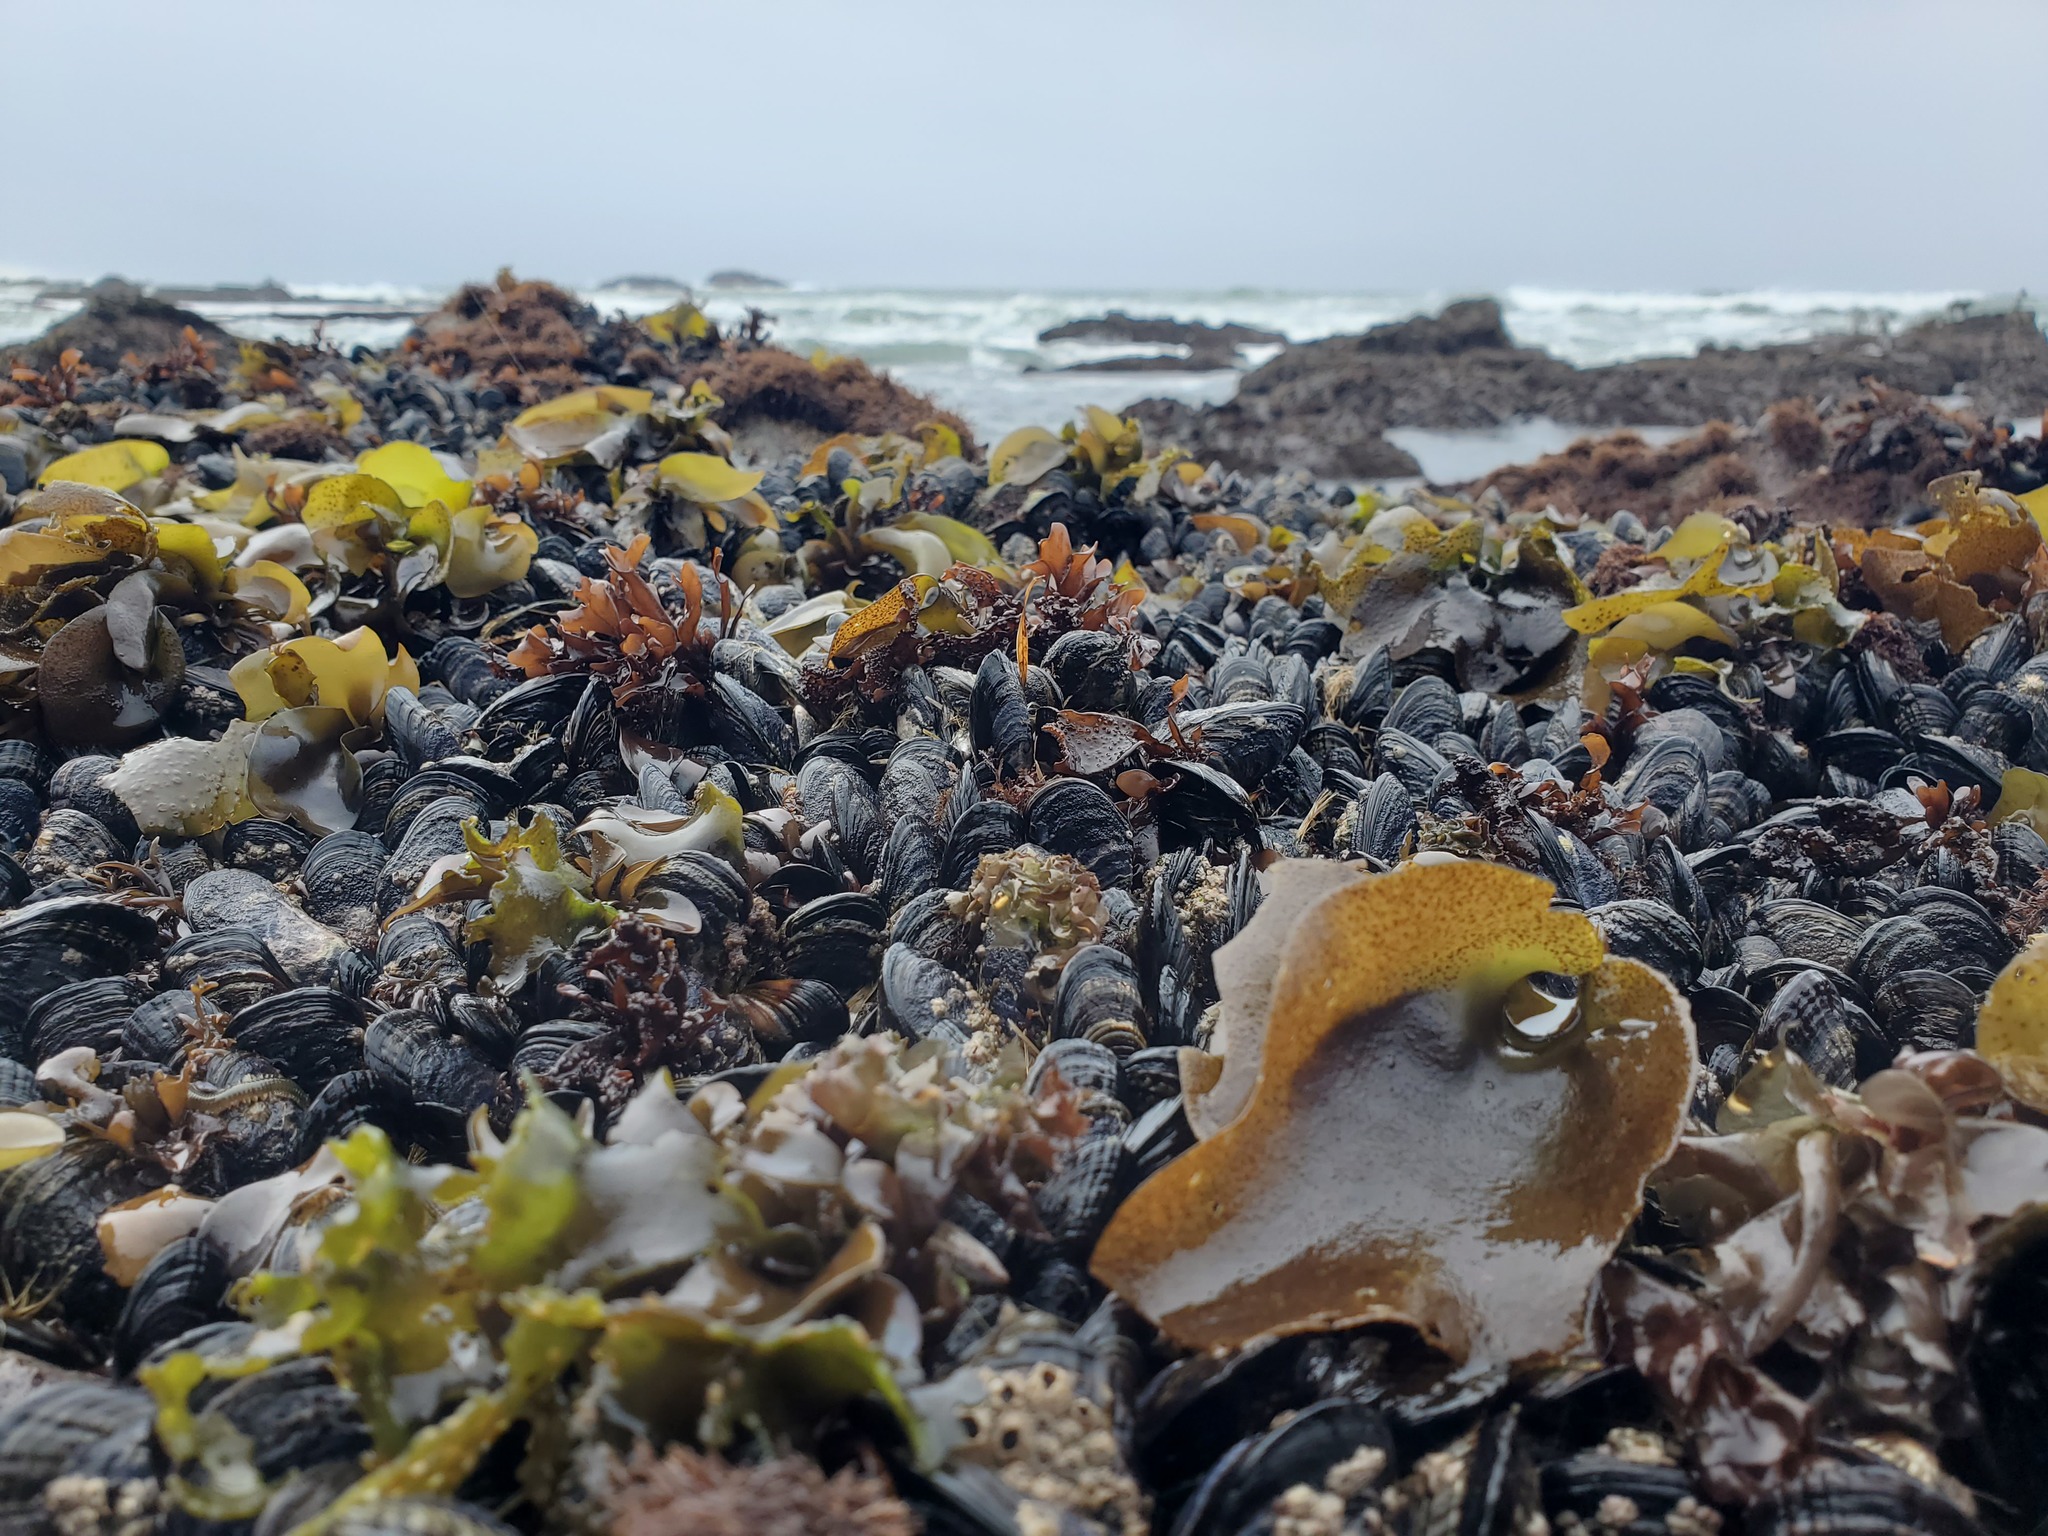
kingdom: Plantae
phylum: Rhodophyta
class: Florideophyceae
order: Gigartinales
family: Gigartinaceae
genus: Mazzaella
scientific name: Mazzaella flaccida
